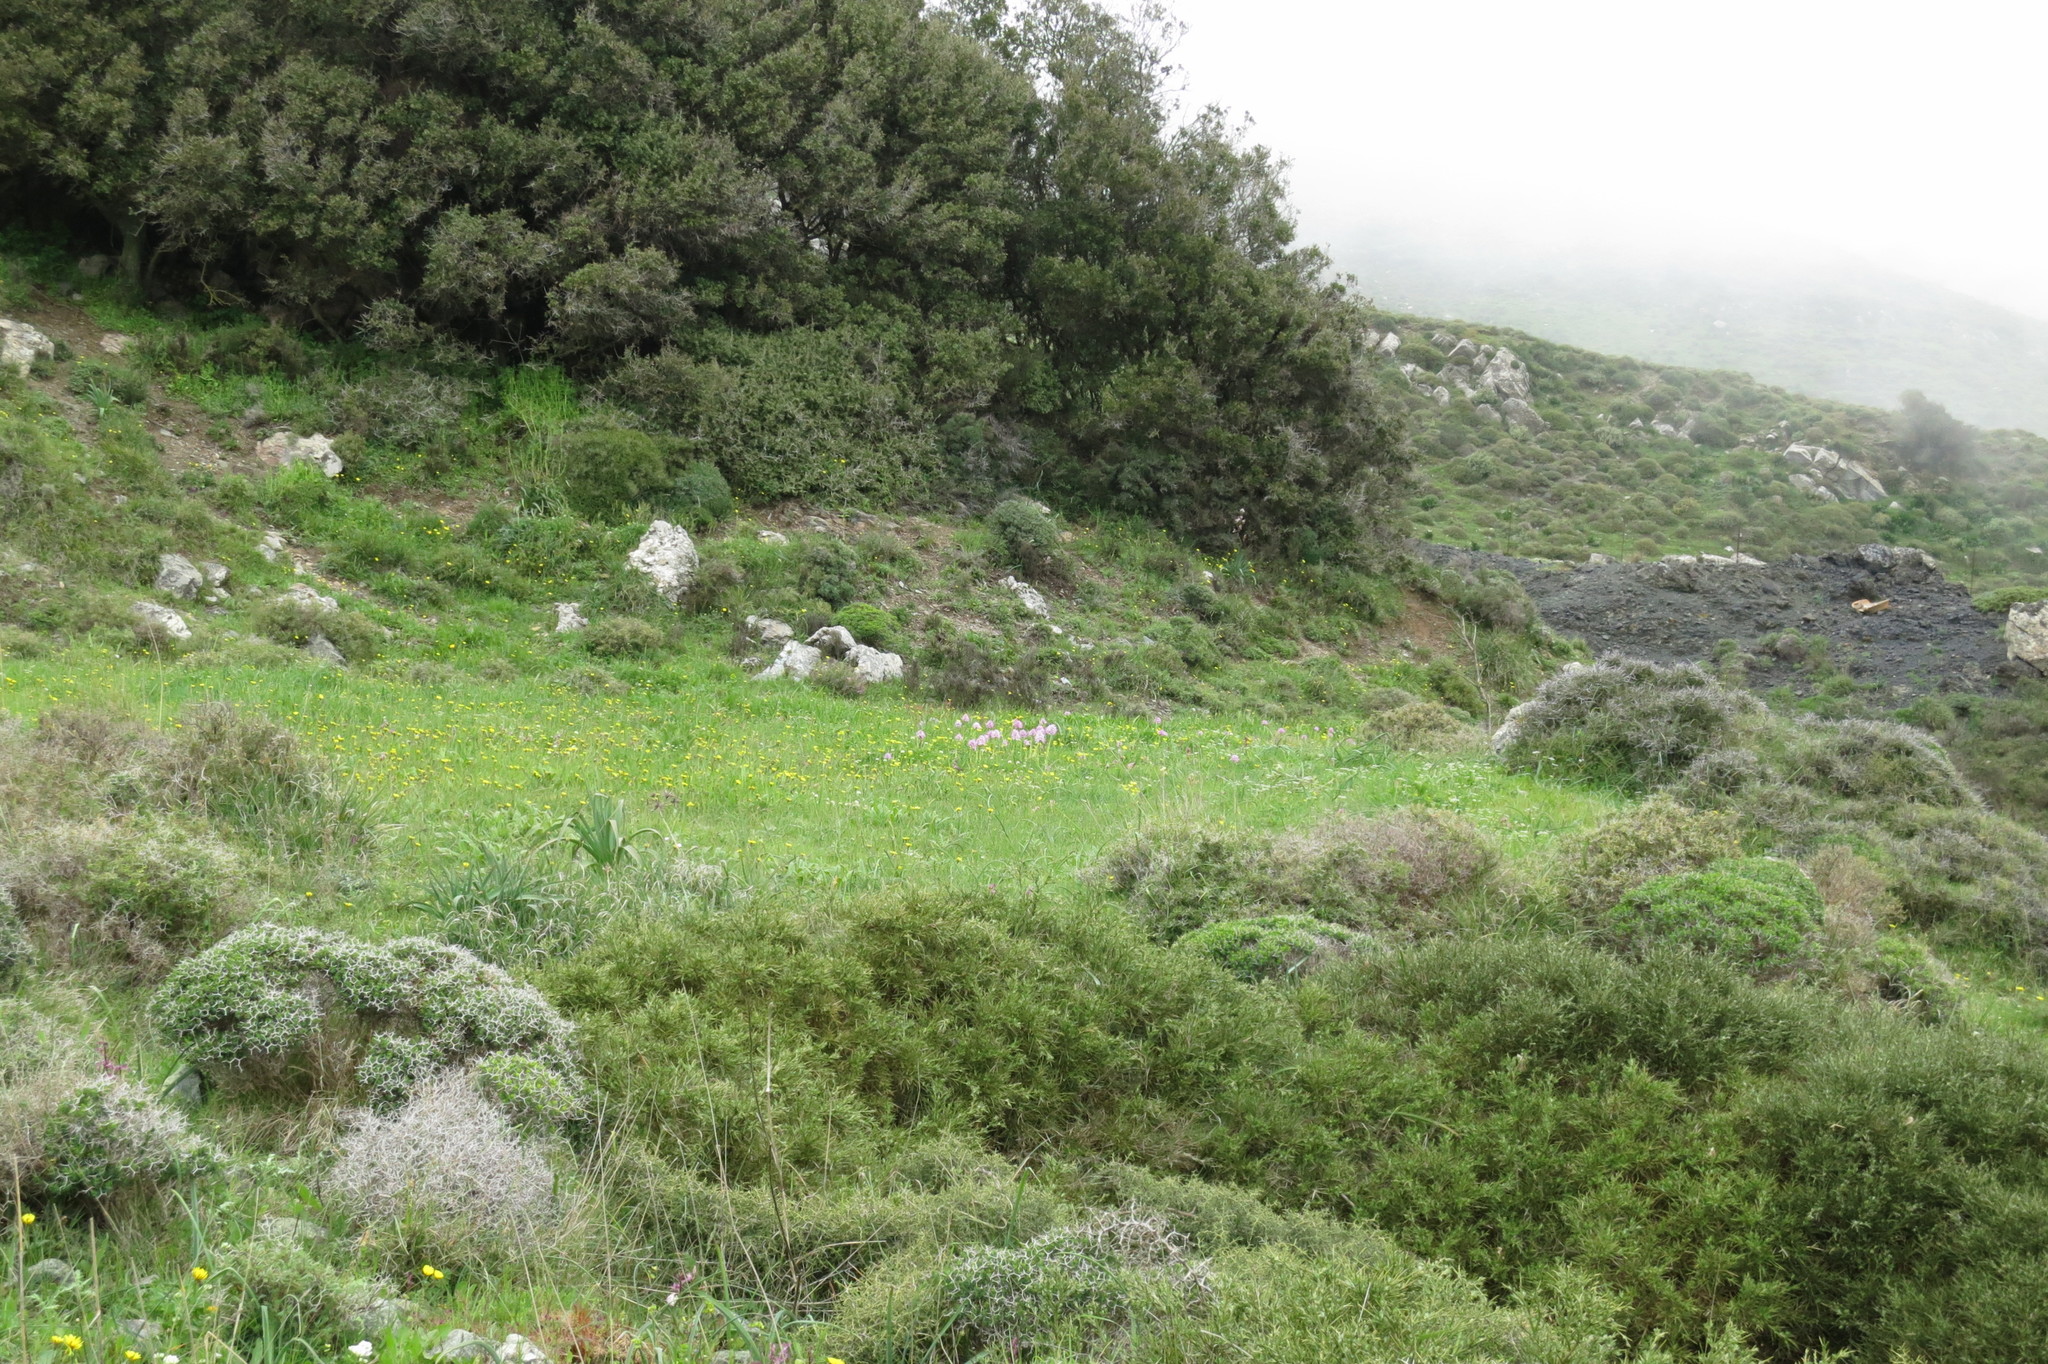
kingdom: Plantae
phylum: Tracheophyta
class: Liliopsida
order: Asparagales
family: Orchidaceae
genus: Orchis
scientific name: Orchis italica
